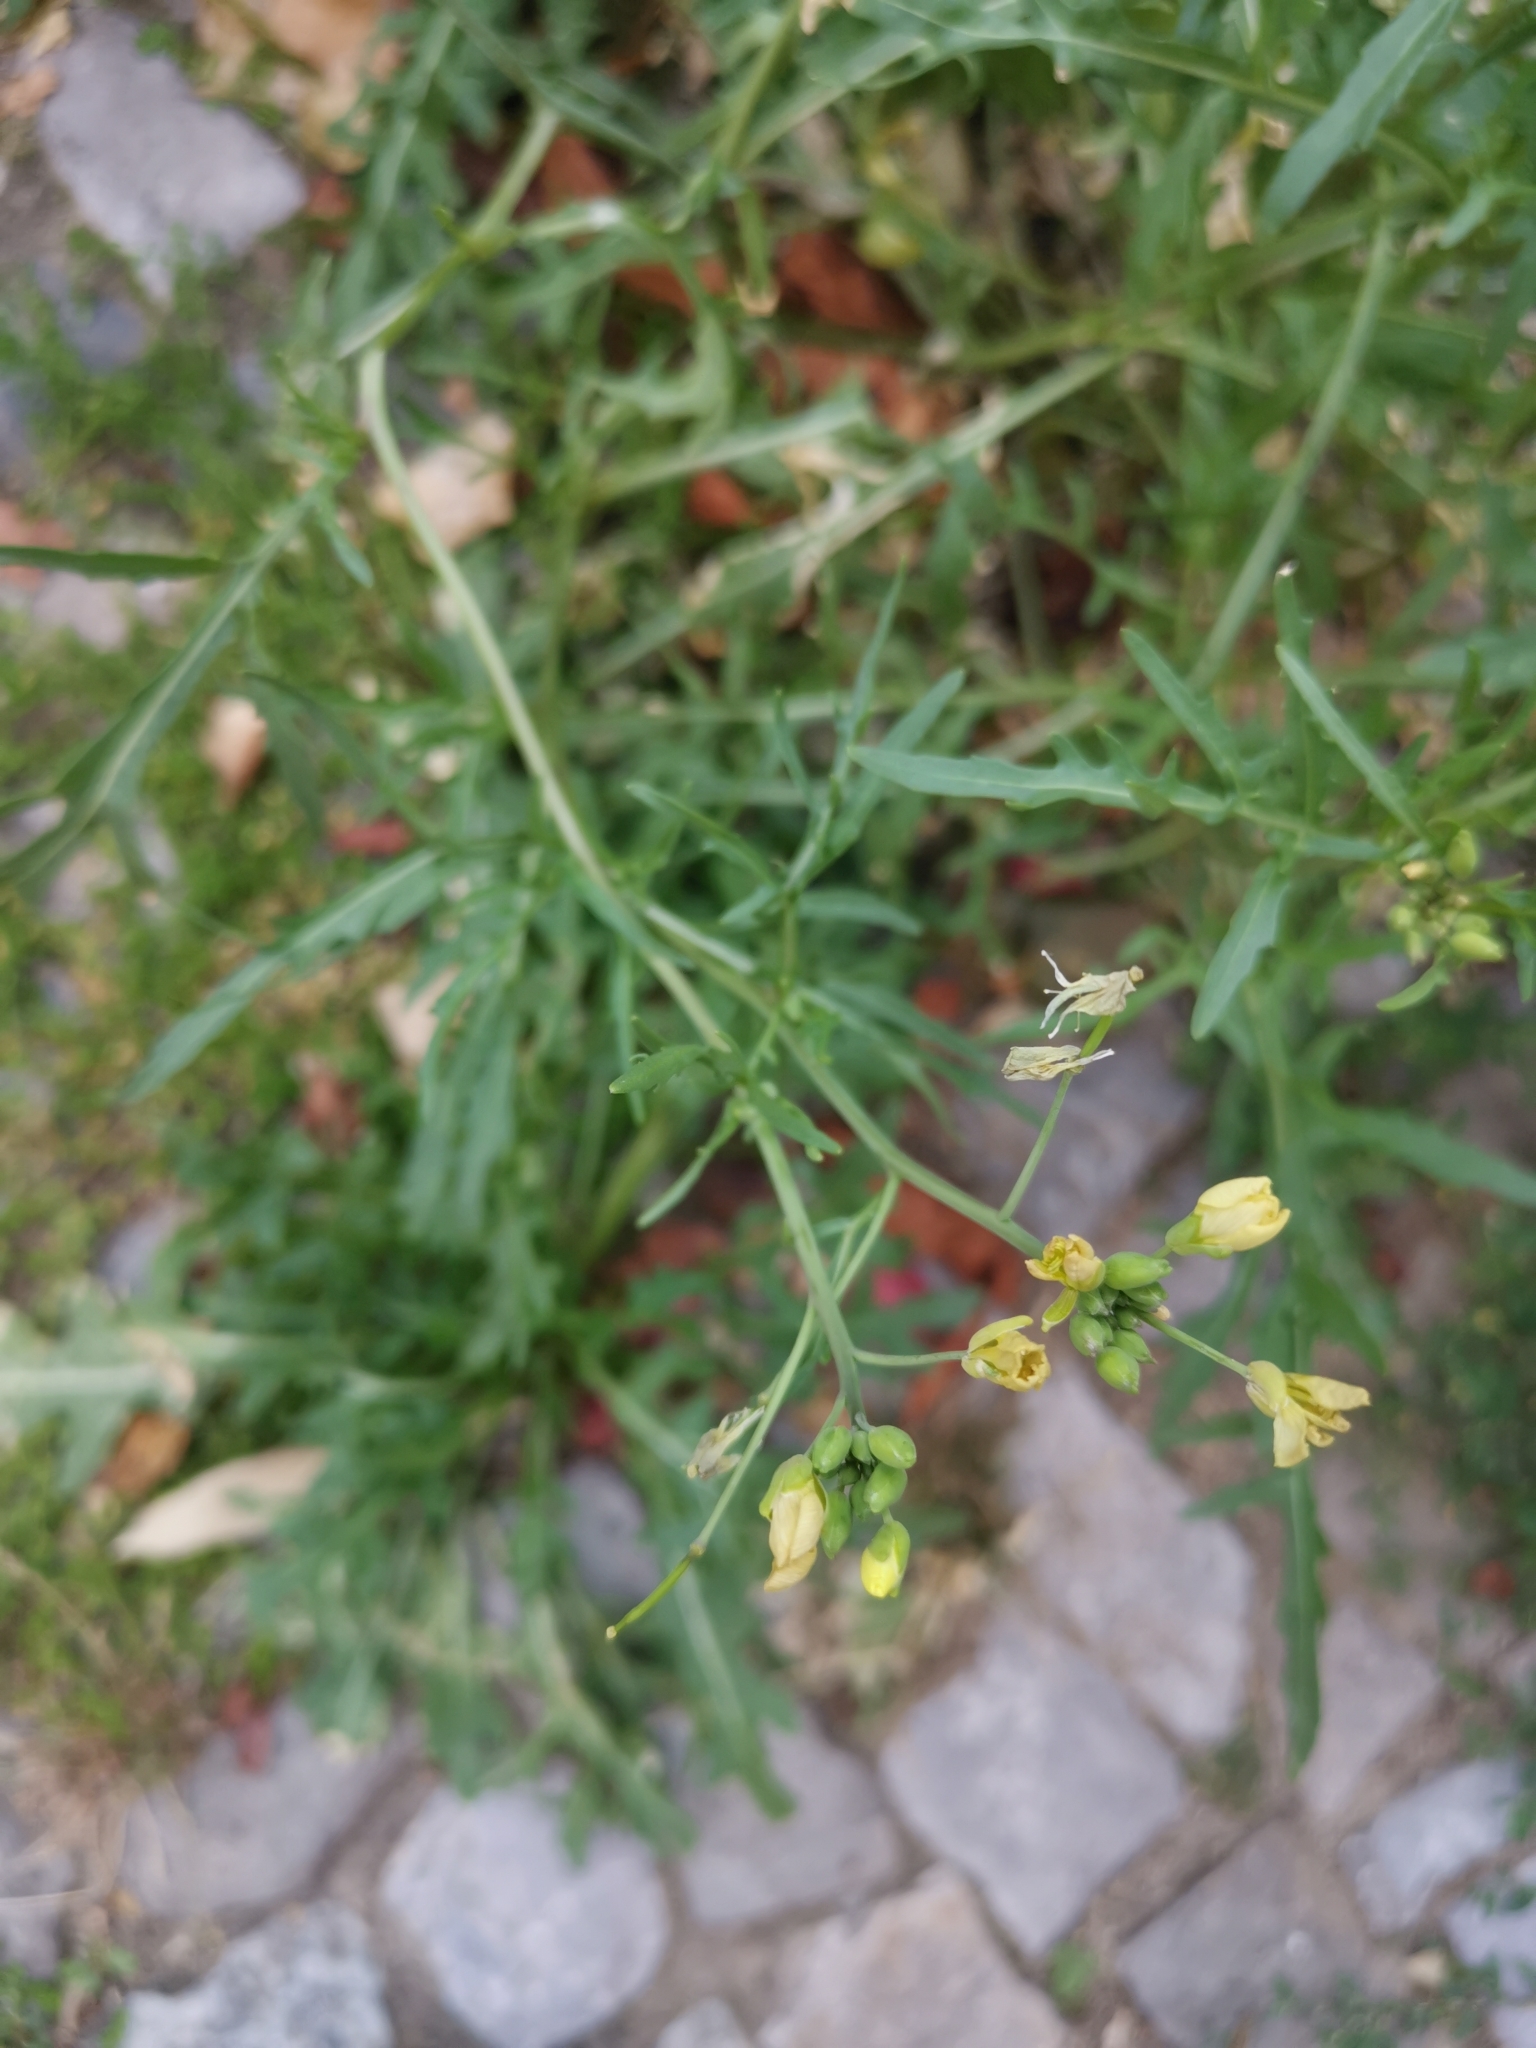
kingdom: Plantae
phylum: Tracheophyta
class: Magnoliopsida
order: Brassicales
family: Brassicaceae
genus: Diplotaxis
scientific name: Diplotaxis tenuifolia
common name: Perennial wall-rocket
